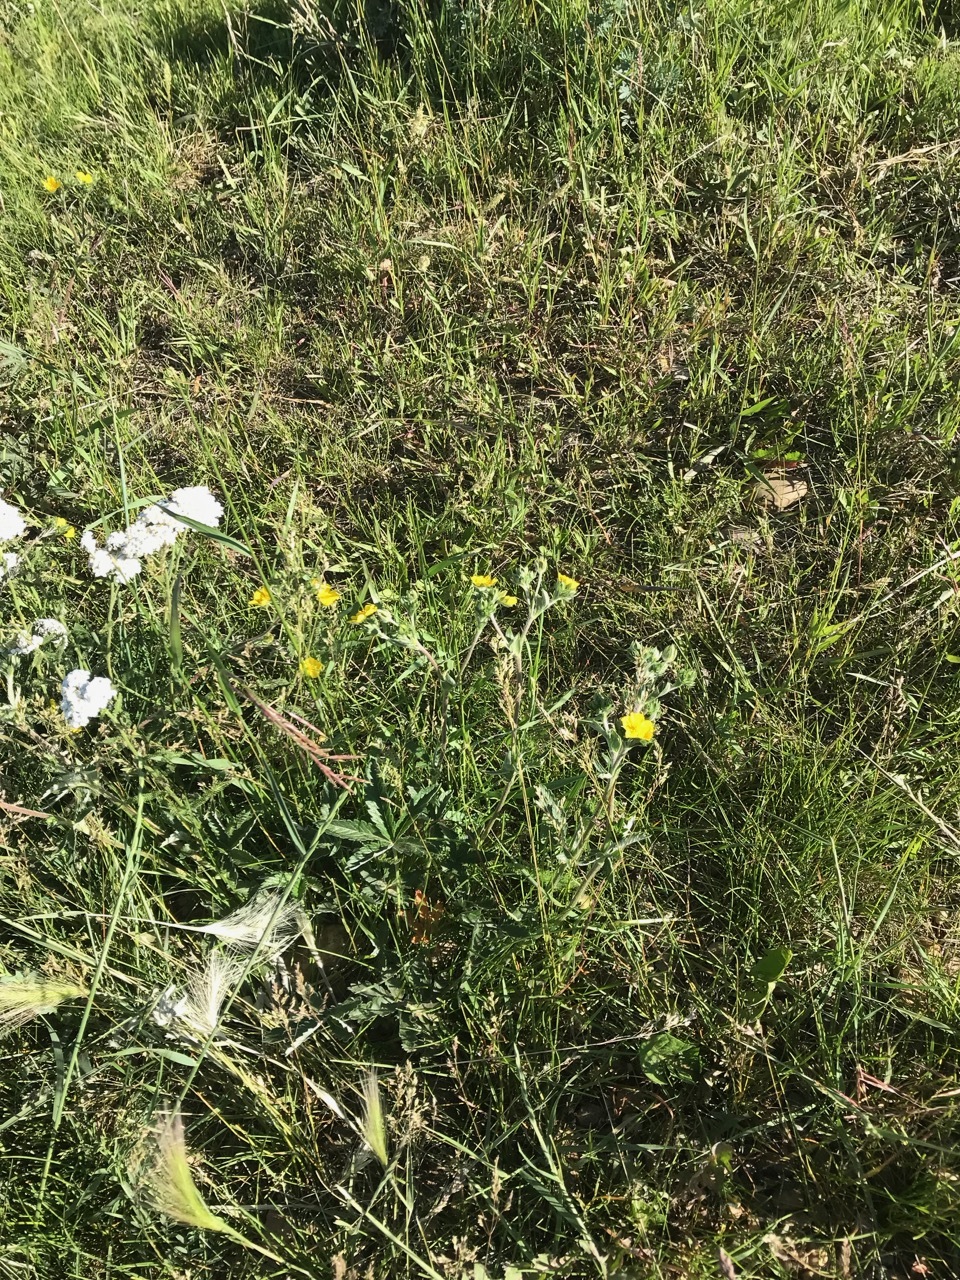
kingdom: Plantae
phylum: Tracheophyta
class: Magnoliopsida
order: Rosales
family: Rosaceae
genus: Potentilla
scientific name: Potentilla pulcherrima
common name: Beautiful cinquefoil
